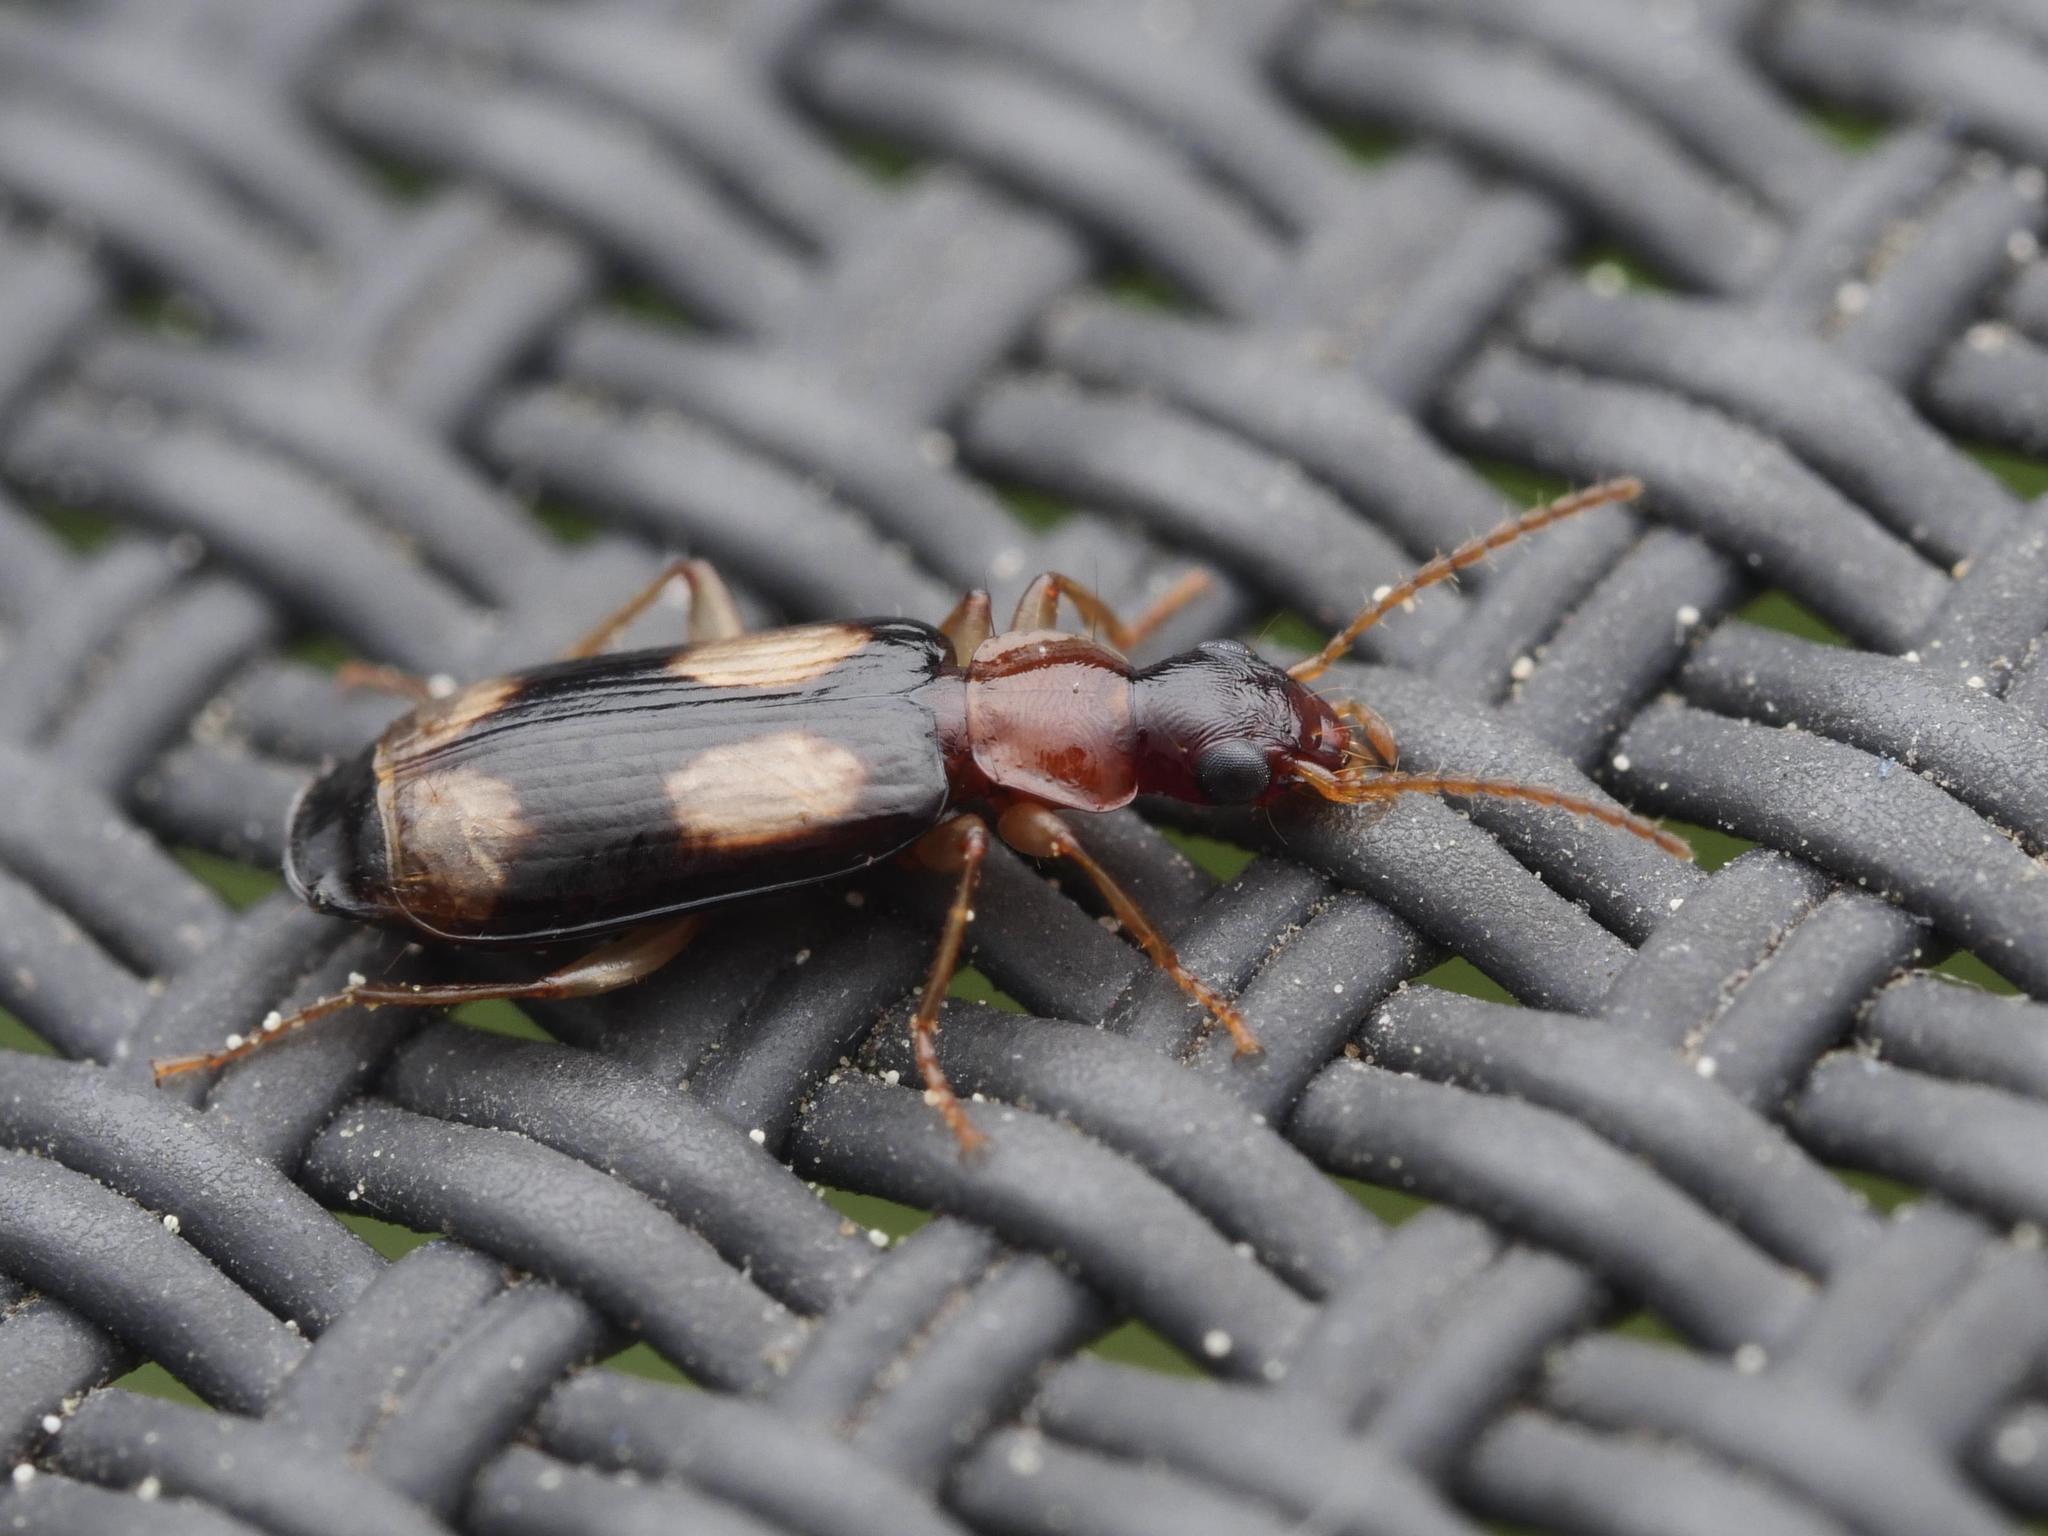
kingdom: Animalia
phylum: Arthropoda
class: Insecta
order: Coleoptera
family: Carabidae
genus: Dromius
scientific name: Dromius quadrimaculatus
